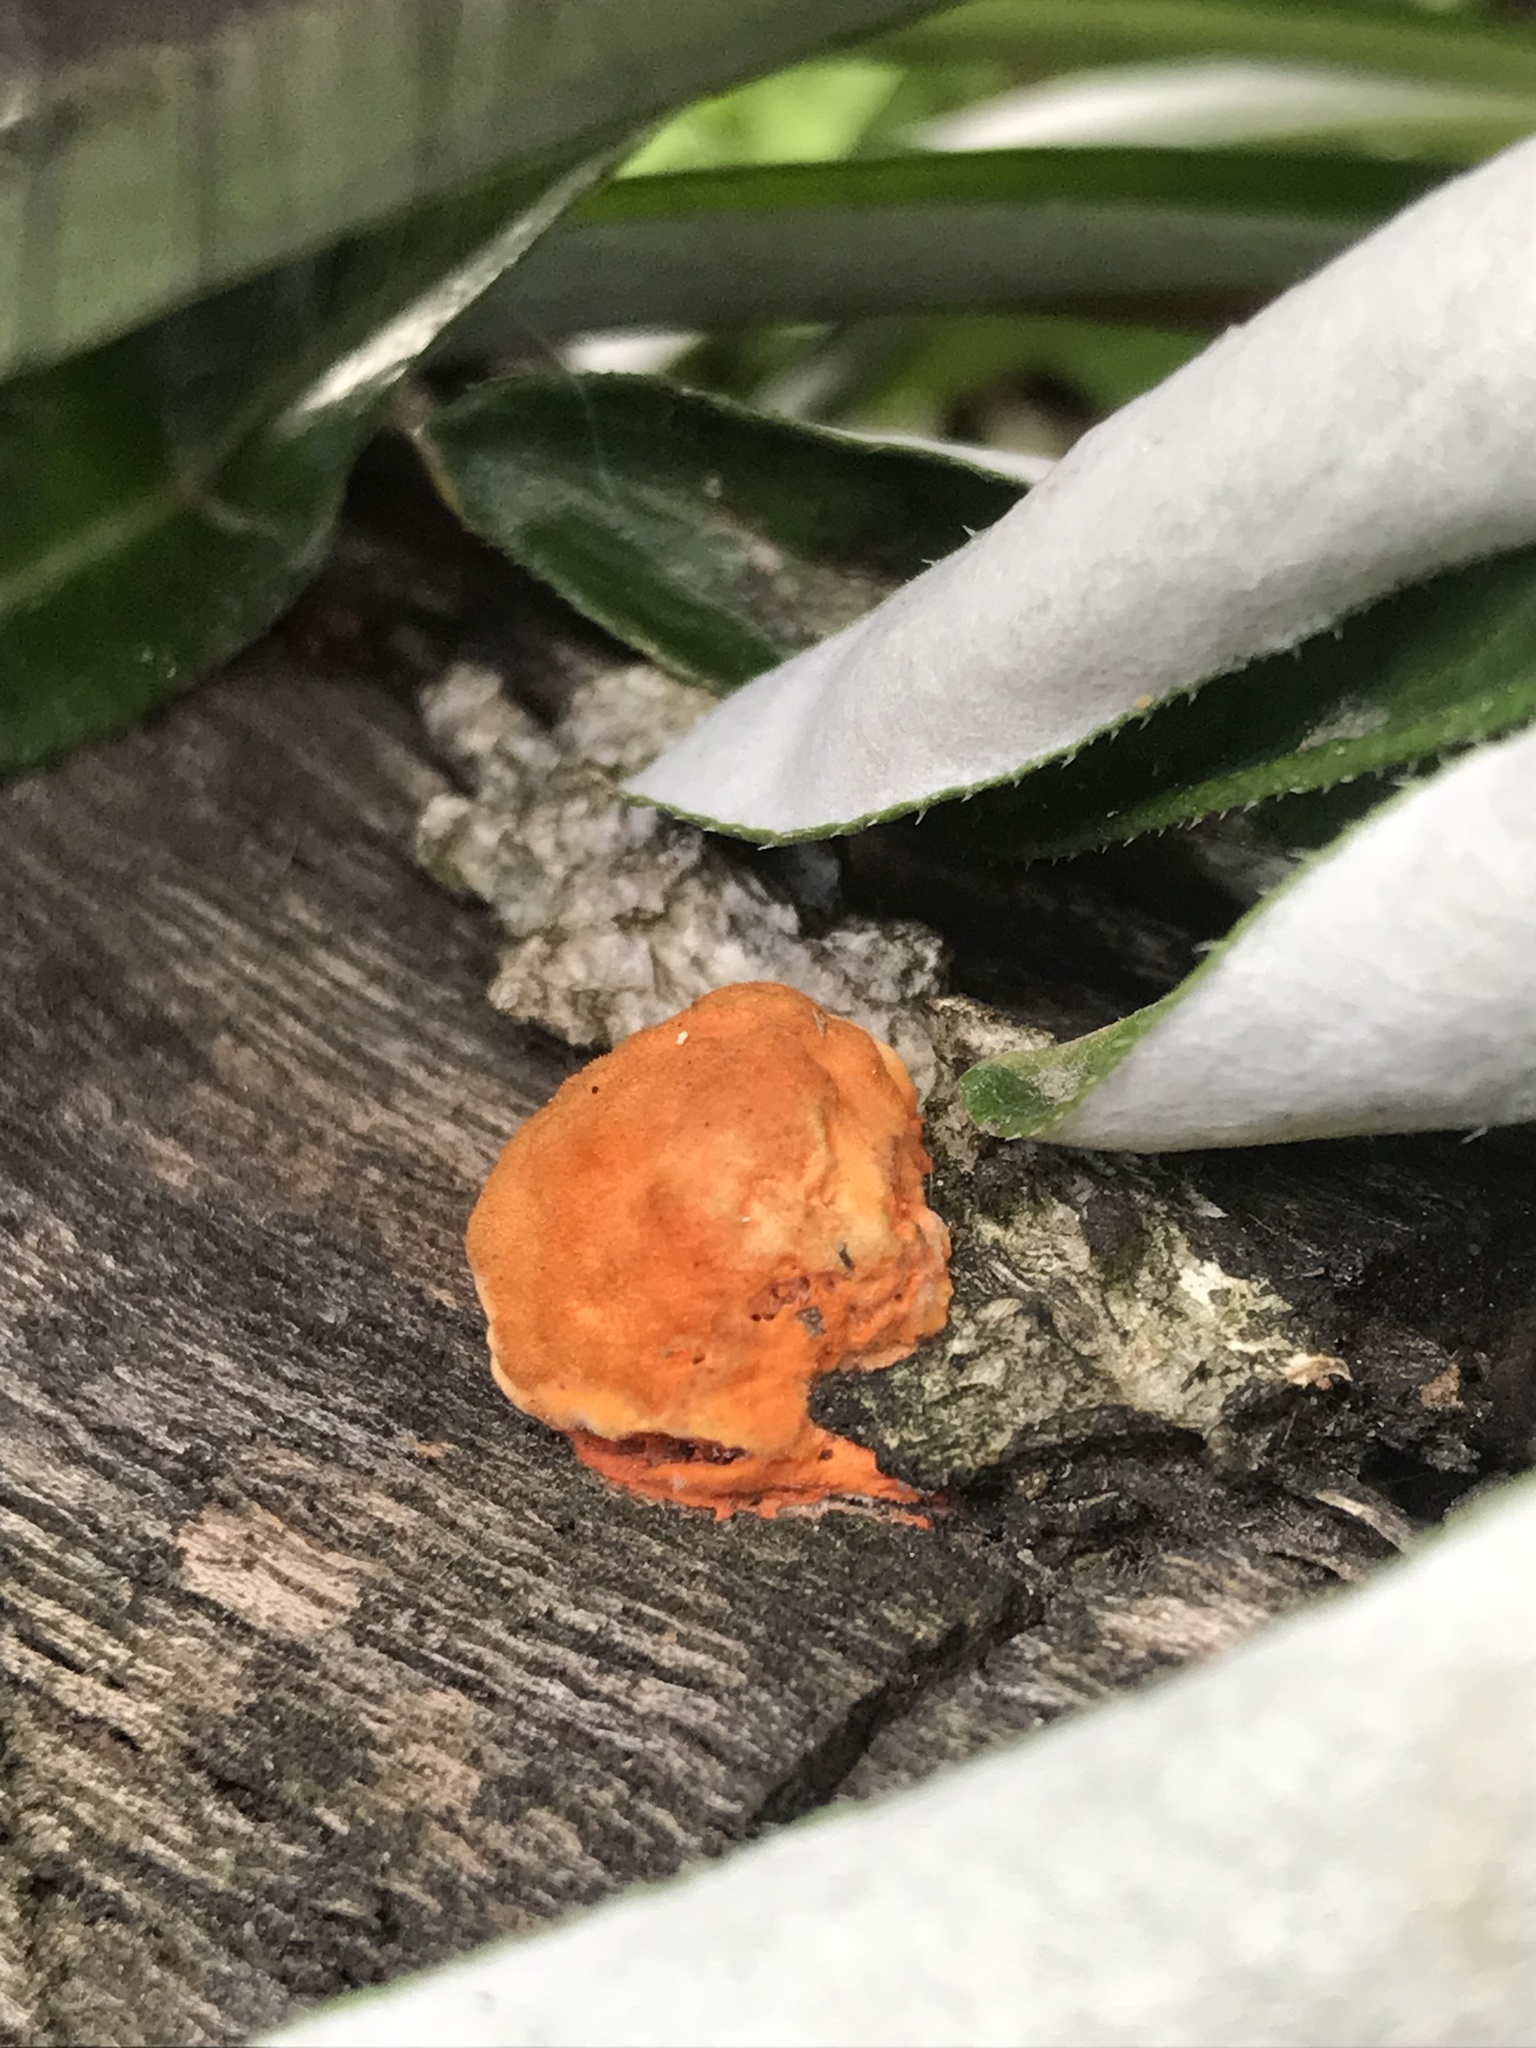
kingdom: Fungi
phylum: Basidiomycota
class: Agaricomycetes
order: Polyporales
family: Polyporaceae
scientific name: Polyporaceae
